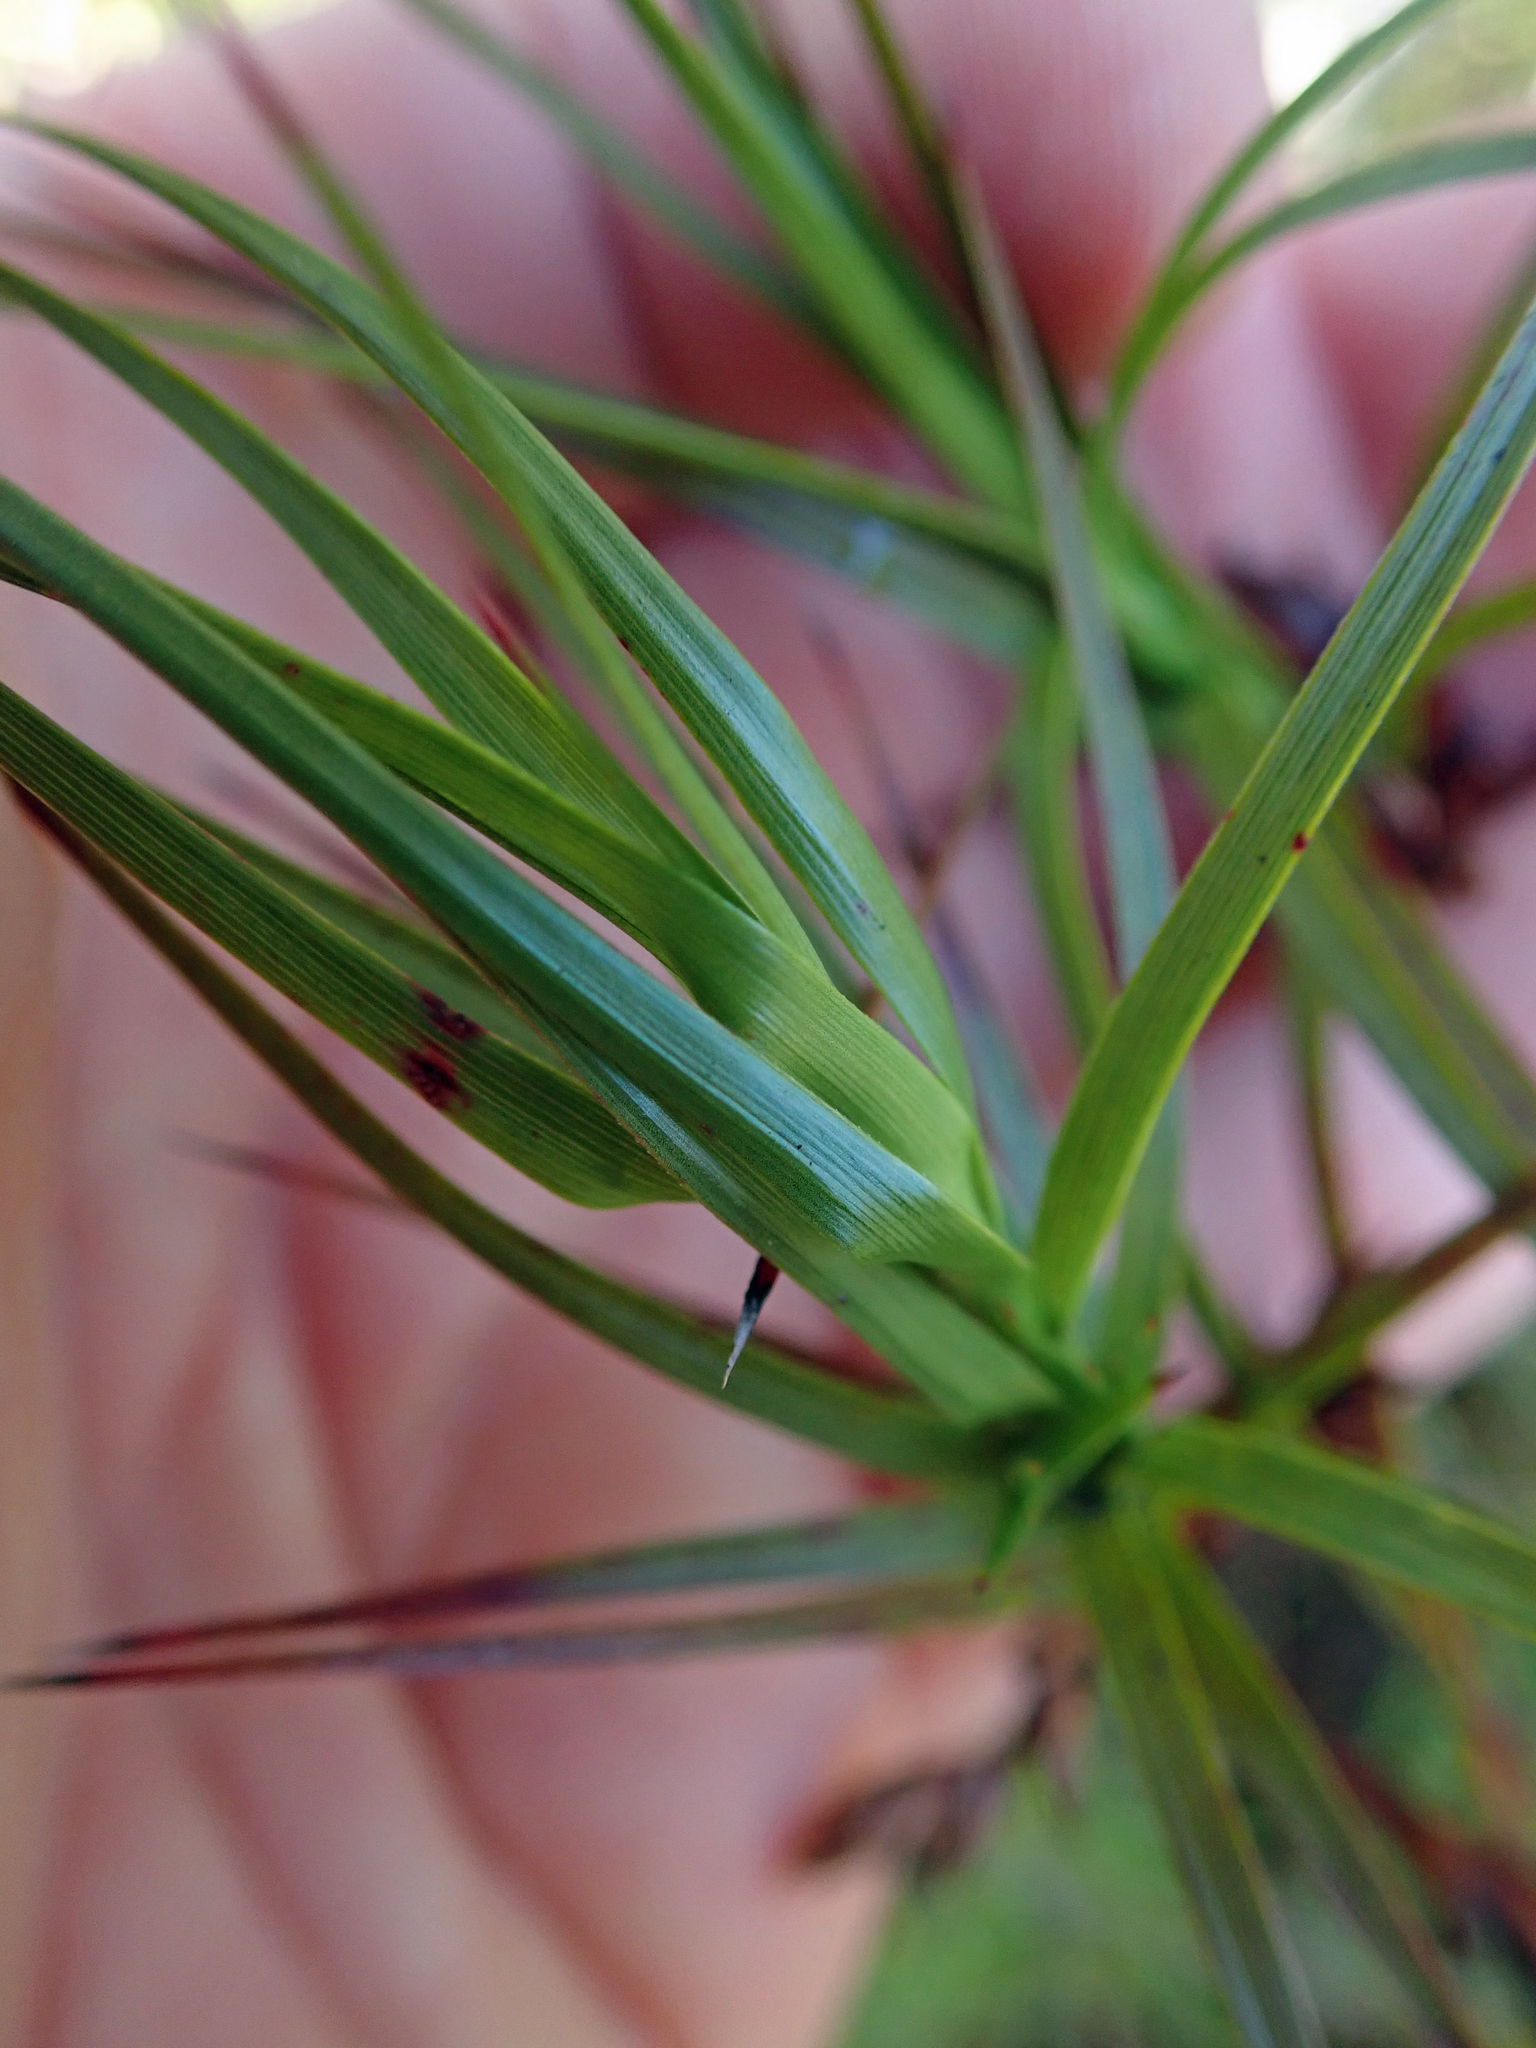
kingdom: Plantae
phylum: Tracheophyta
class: Magnoliopsida
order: Ericales
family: Ericaceae
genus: Dracophyllum
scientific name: Dracophyllum sinclairii
